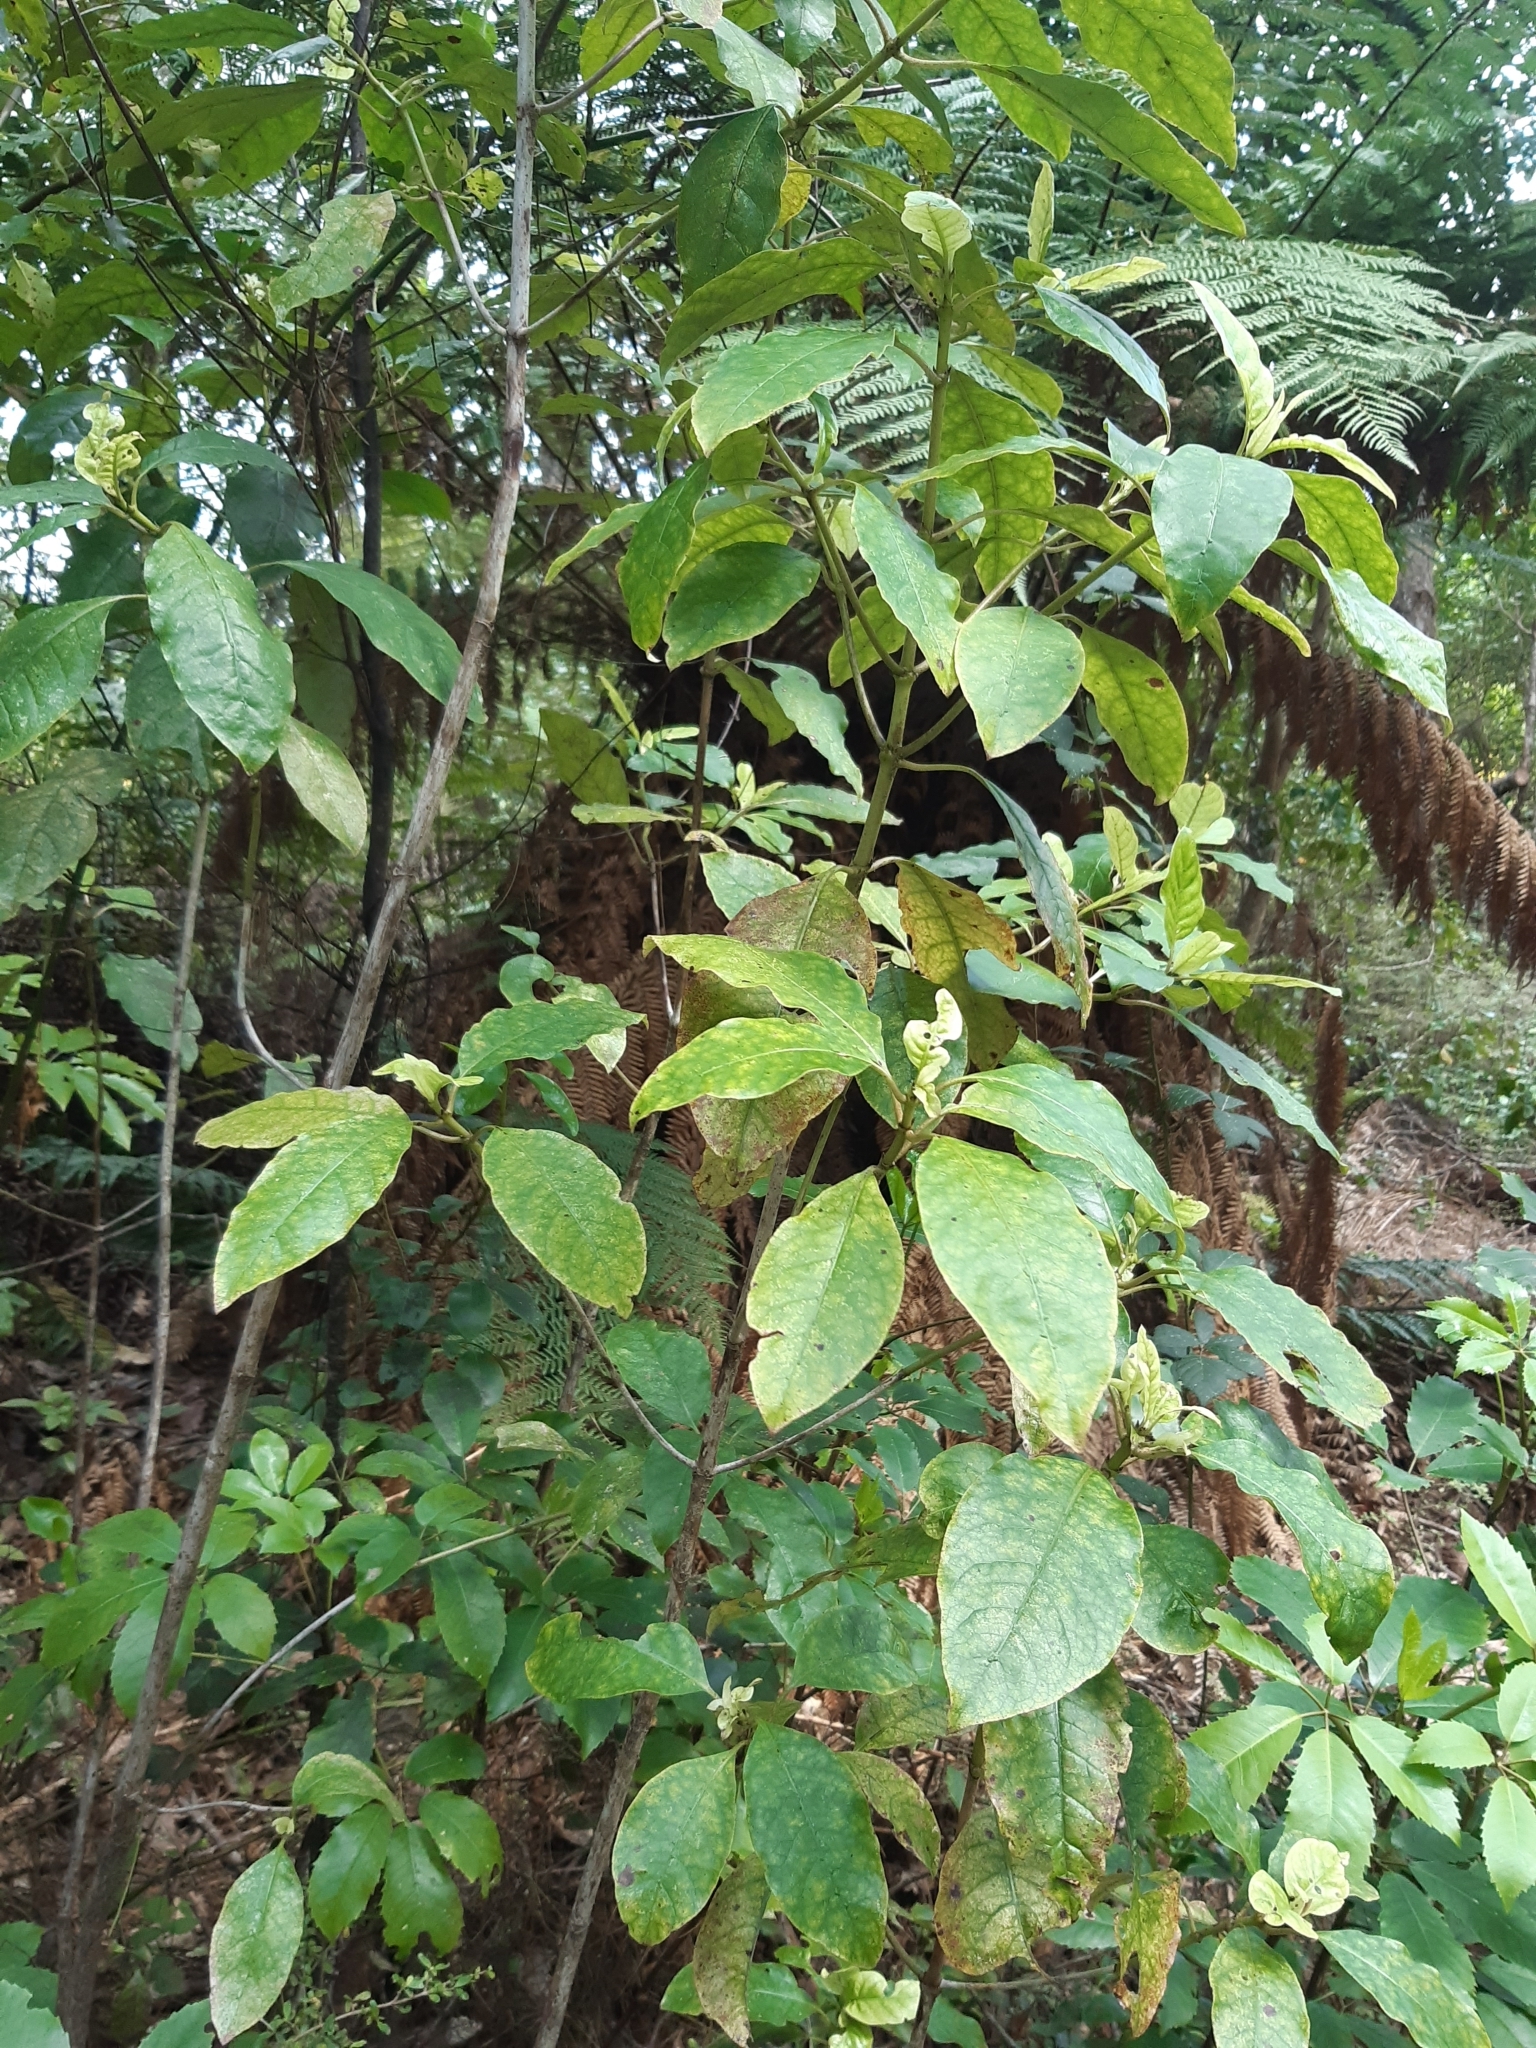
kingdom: Plantae
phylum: Tracheophyta
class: Magnoliopsida
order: Gentianales
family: Rubiaceae
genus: Coprosma
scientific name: Coprosma autumnalis
